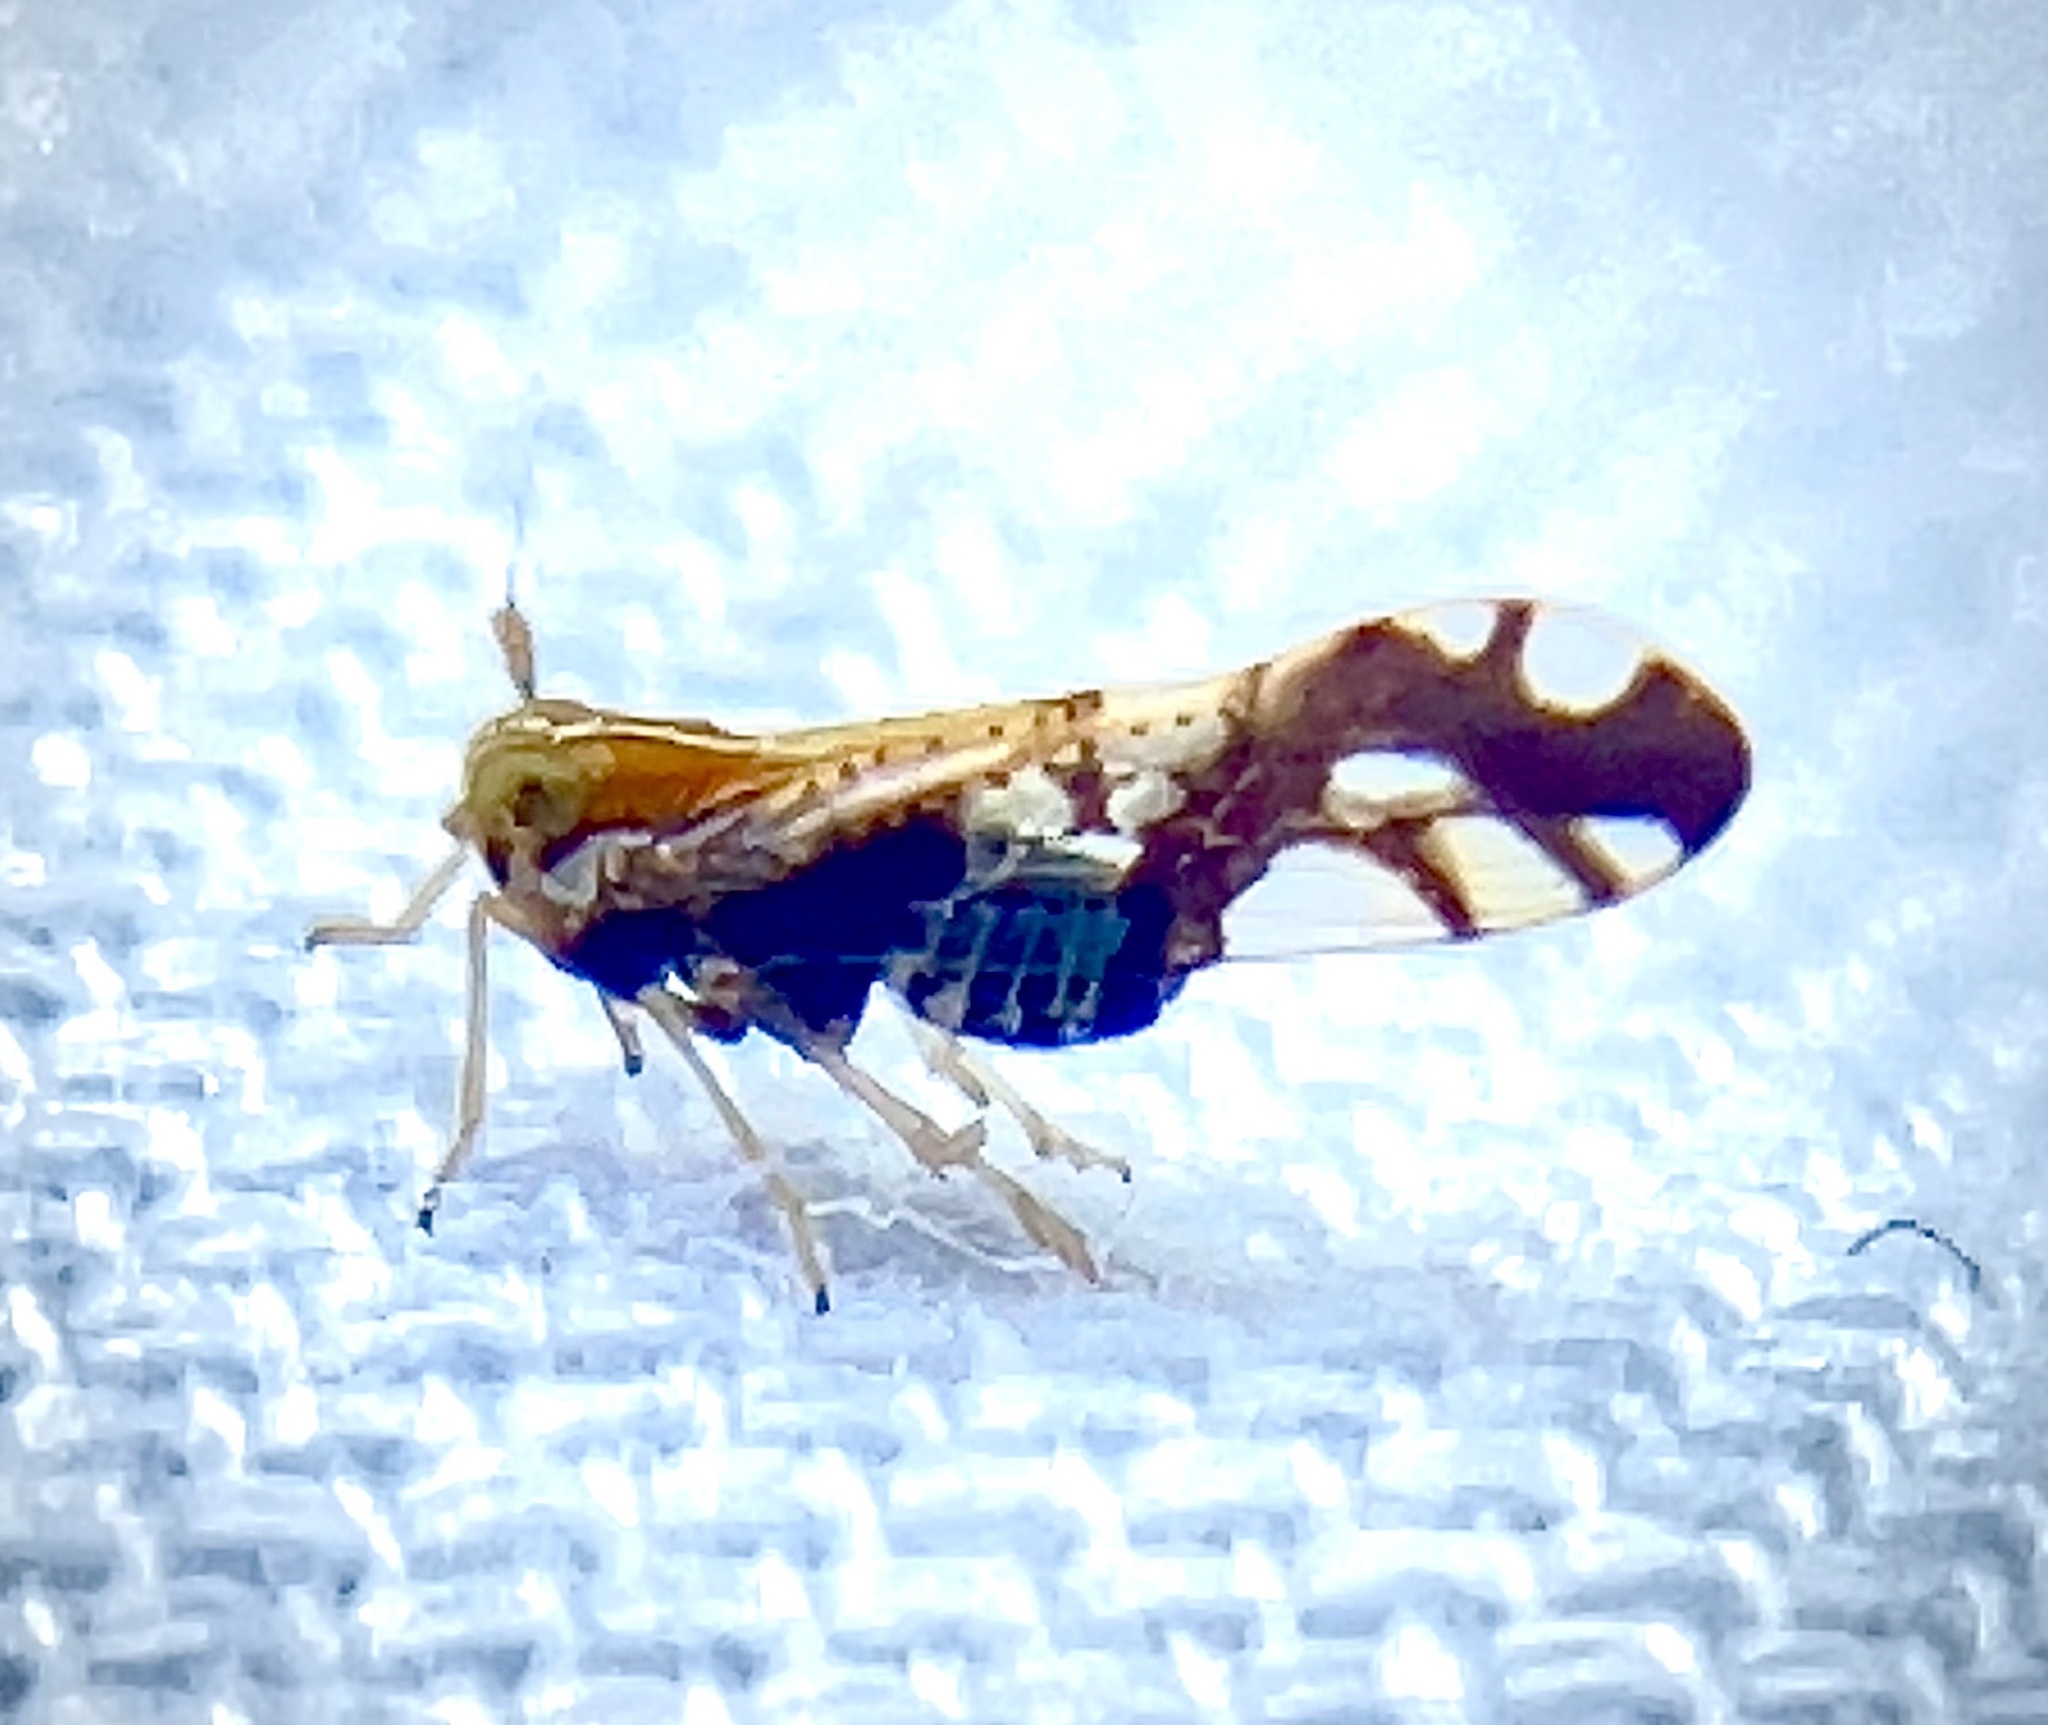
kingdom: Animalia
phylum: Arthropoda
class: Insecta
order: Hemiptera
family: Delphacidae
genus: Liburniella
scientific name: Liburniella ornata
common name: Ornate planthopper
